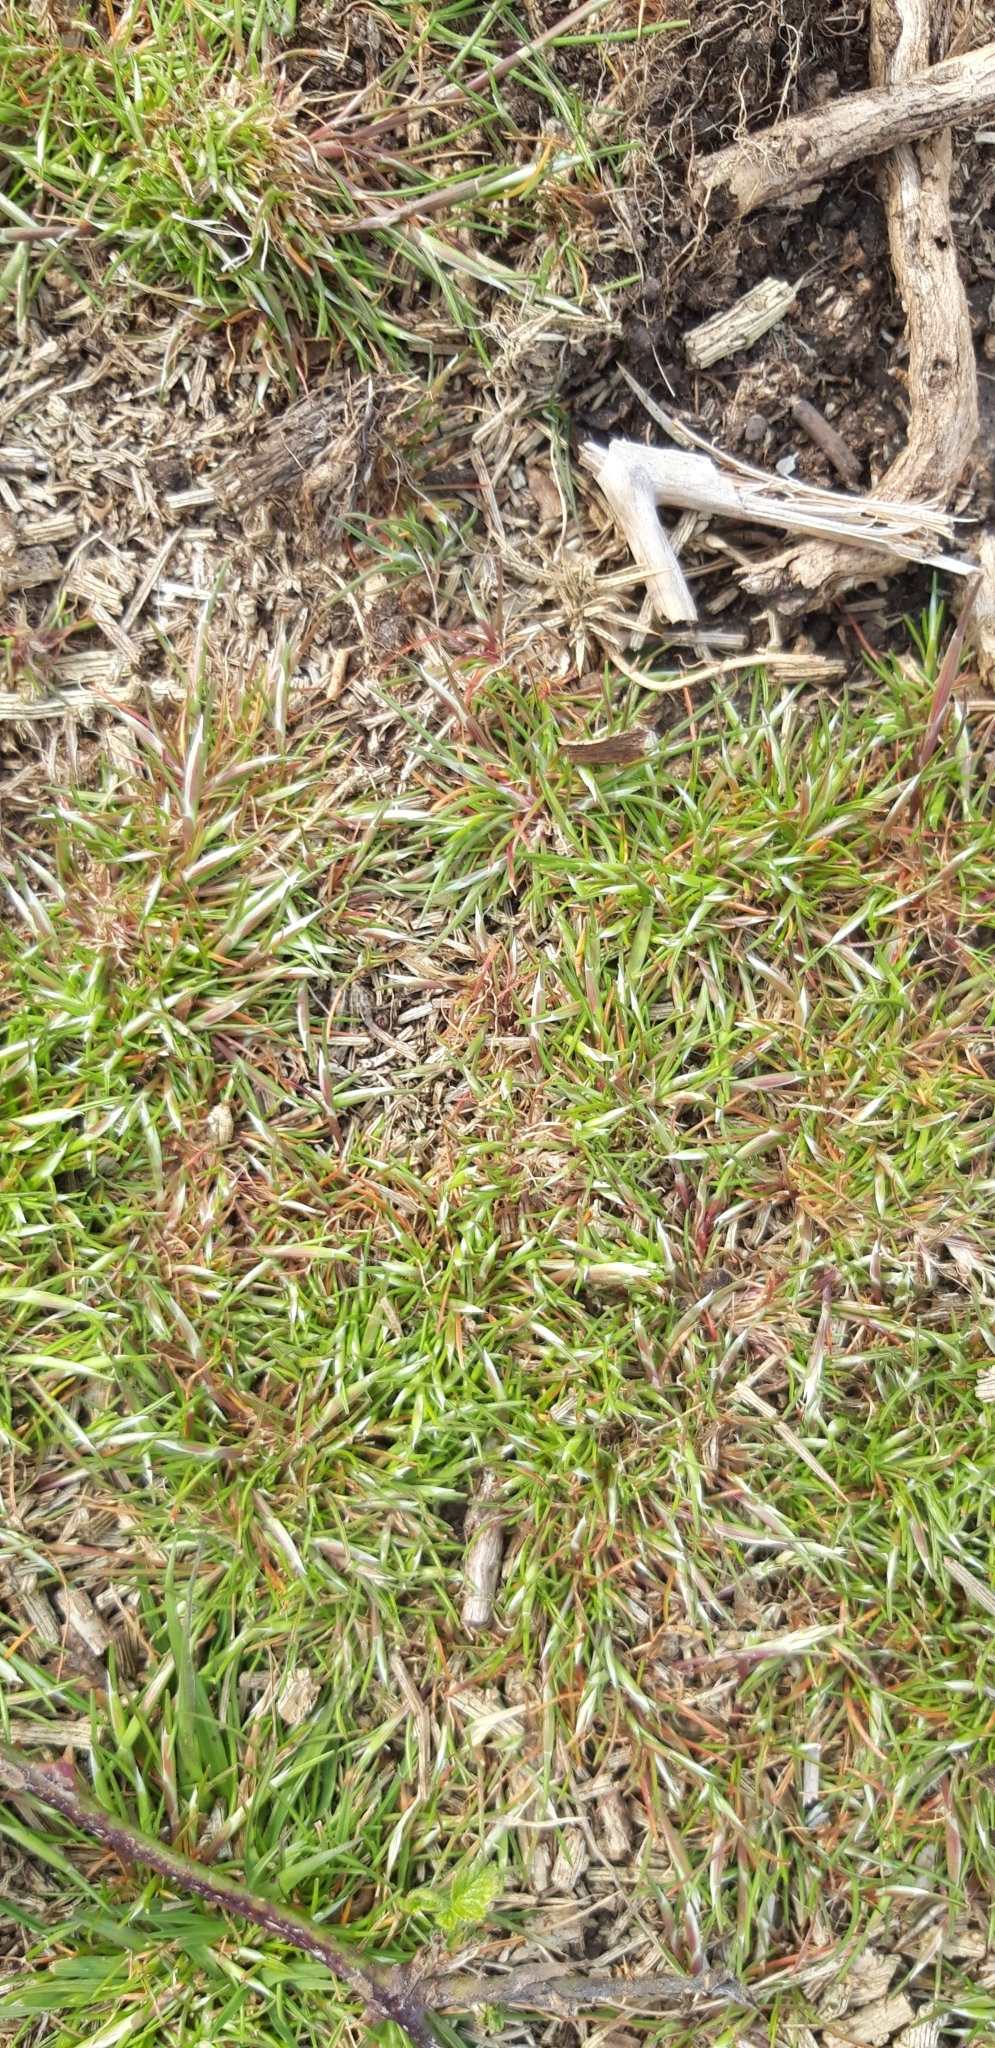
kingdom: Plantae
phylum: Tracheophyta
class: Liliopsida
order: Poales
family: Poaceae
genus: Aira
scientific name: Aira praecox
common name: Early hair-grass
